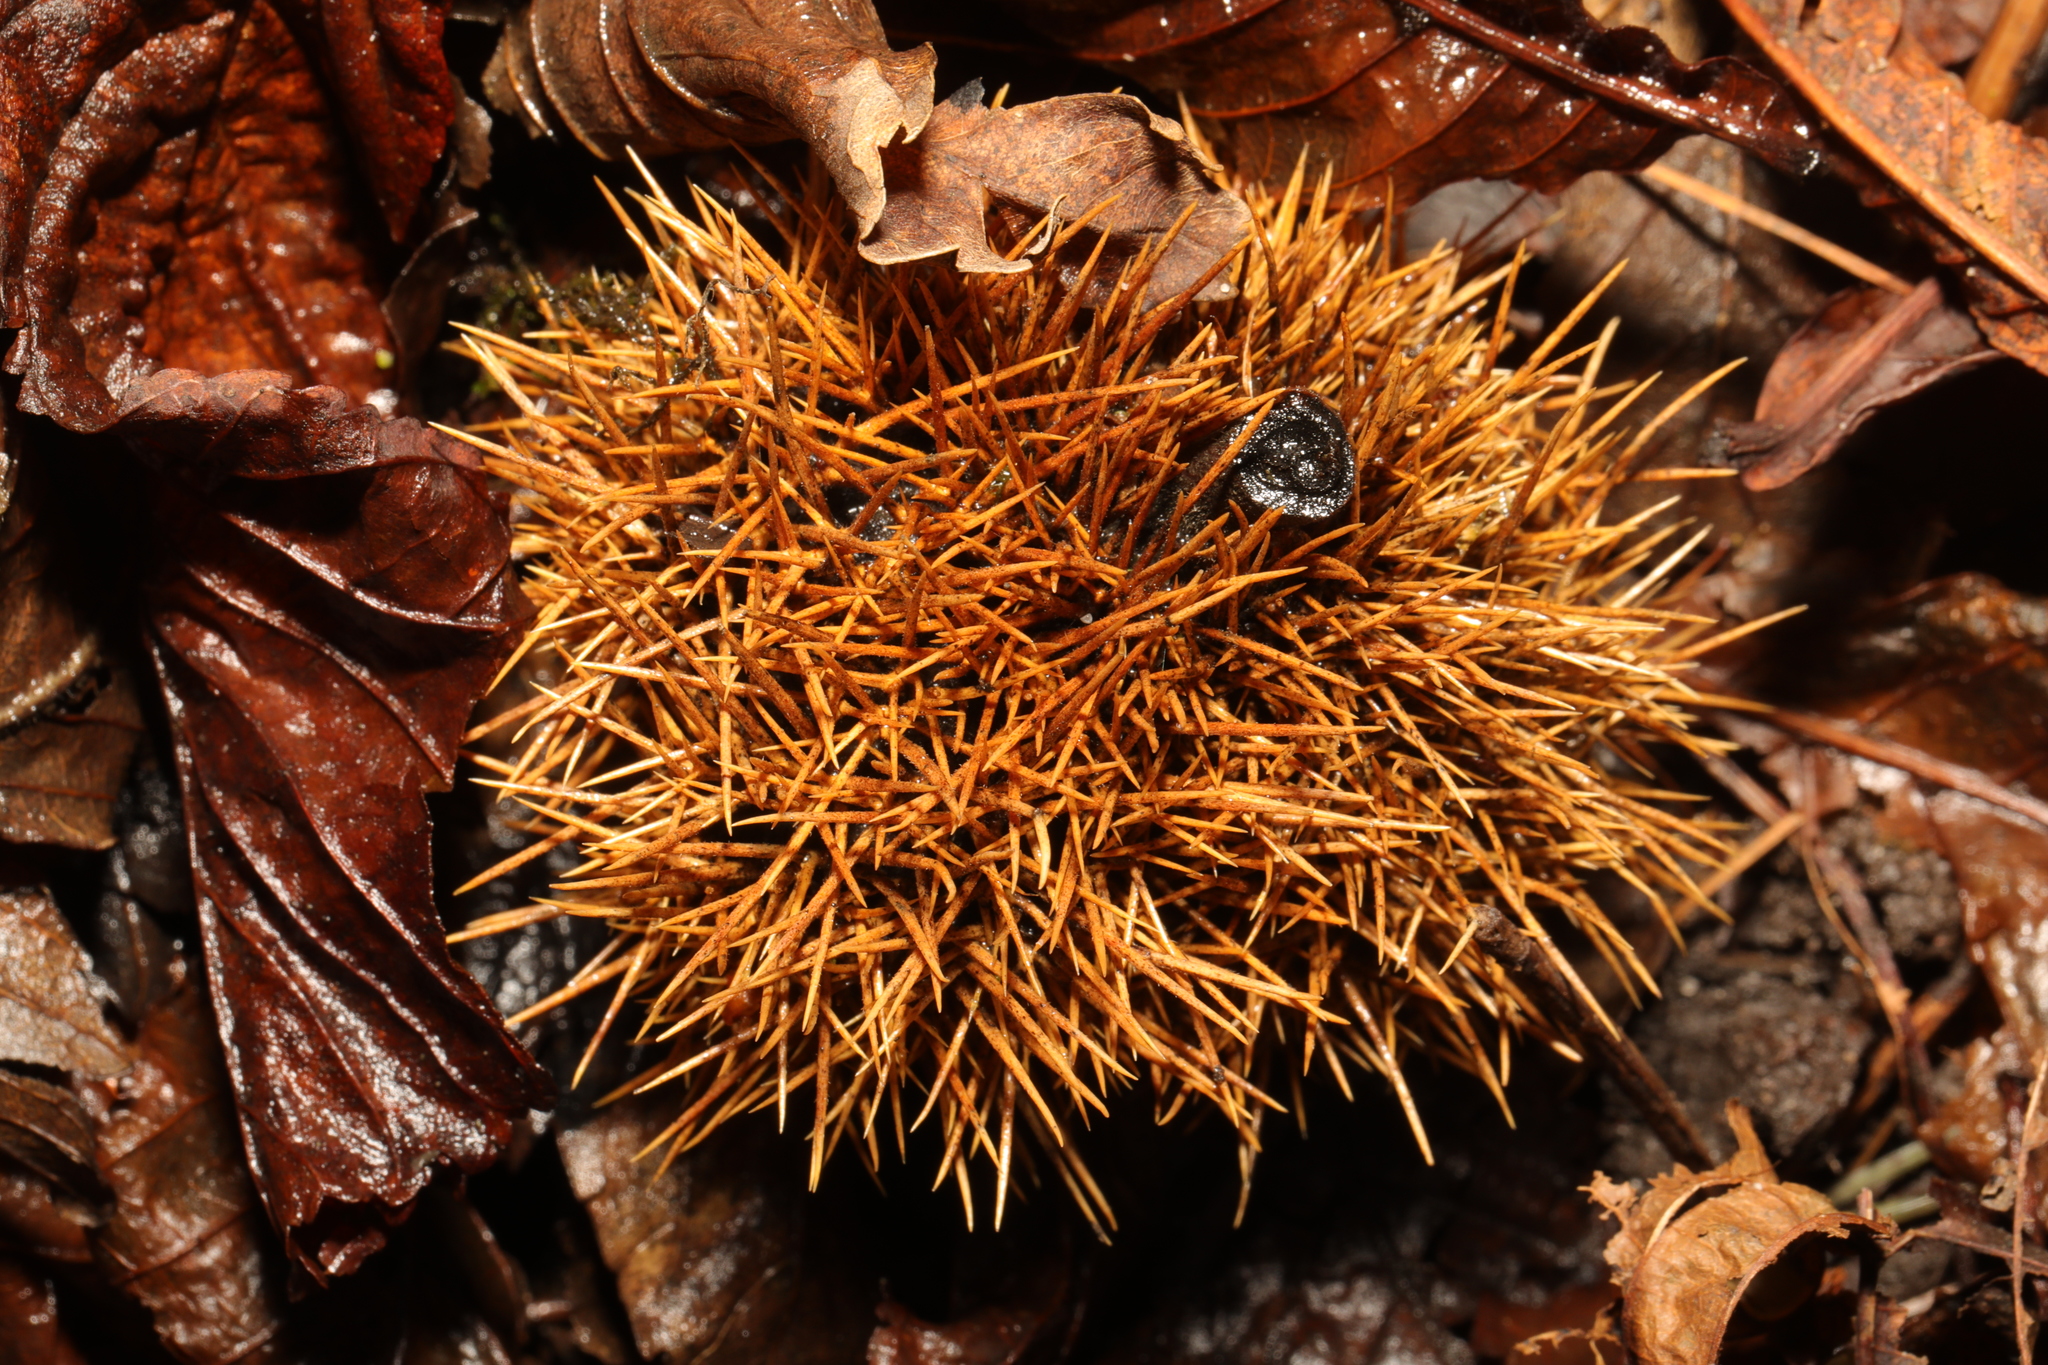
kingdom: Plantae
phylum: Tracheophyta
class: Magnoliopsida
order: Fagales
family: Fagaceae
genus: Castanea
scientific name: Castanea sativa
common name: Sweet chestnut
